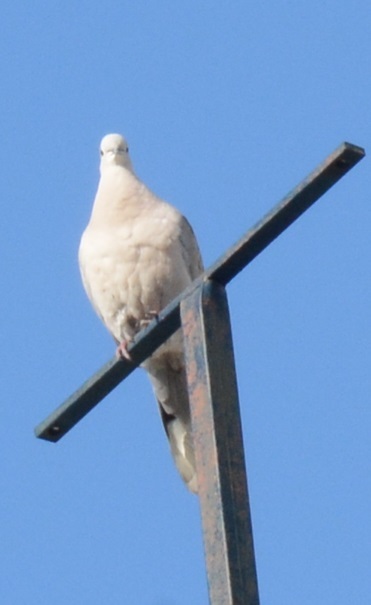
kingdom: Animalia
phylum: Chordata
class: Aves
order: Columbiformes
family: Columbidae
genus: Streptopelia
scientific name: Streptopelia decaocto
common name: Eurasian collared dove
